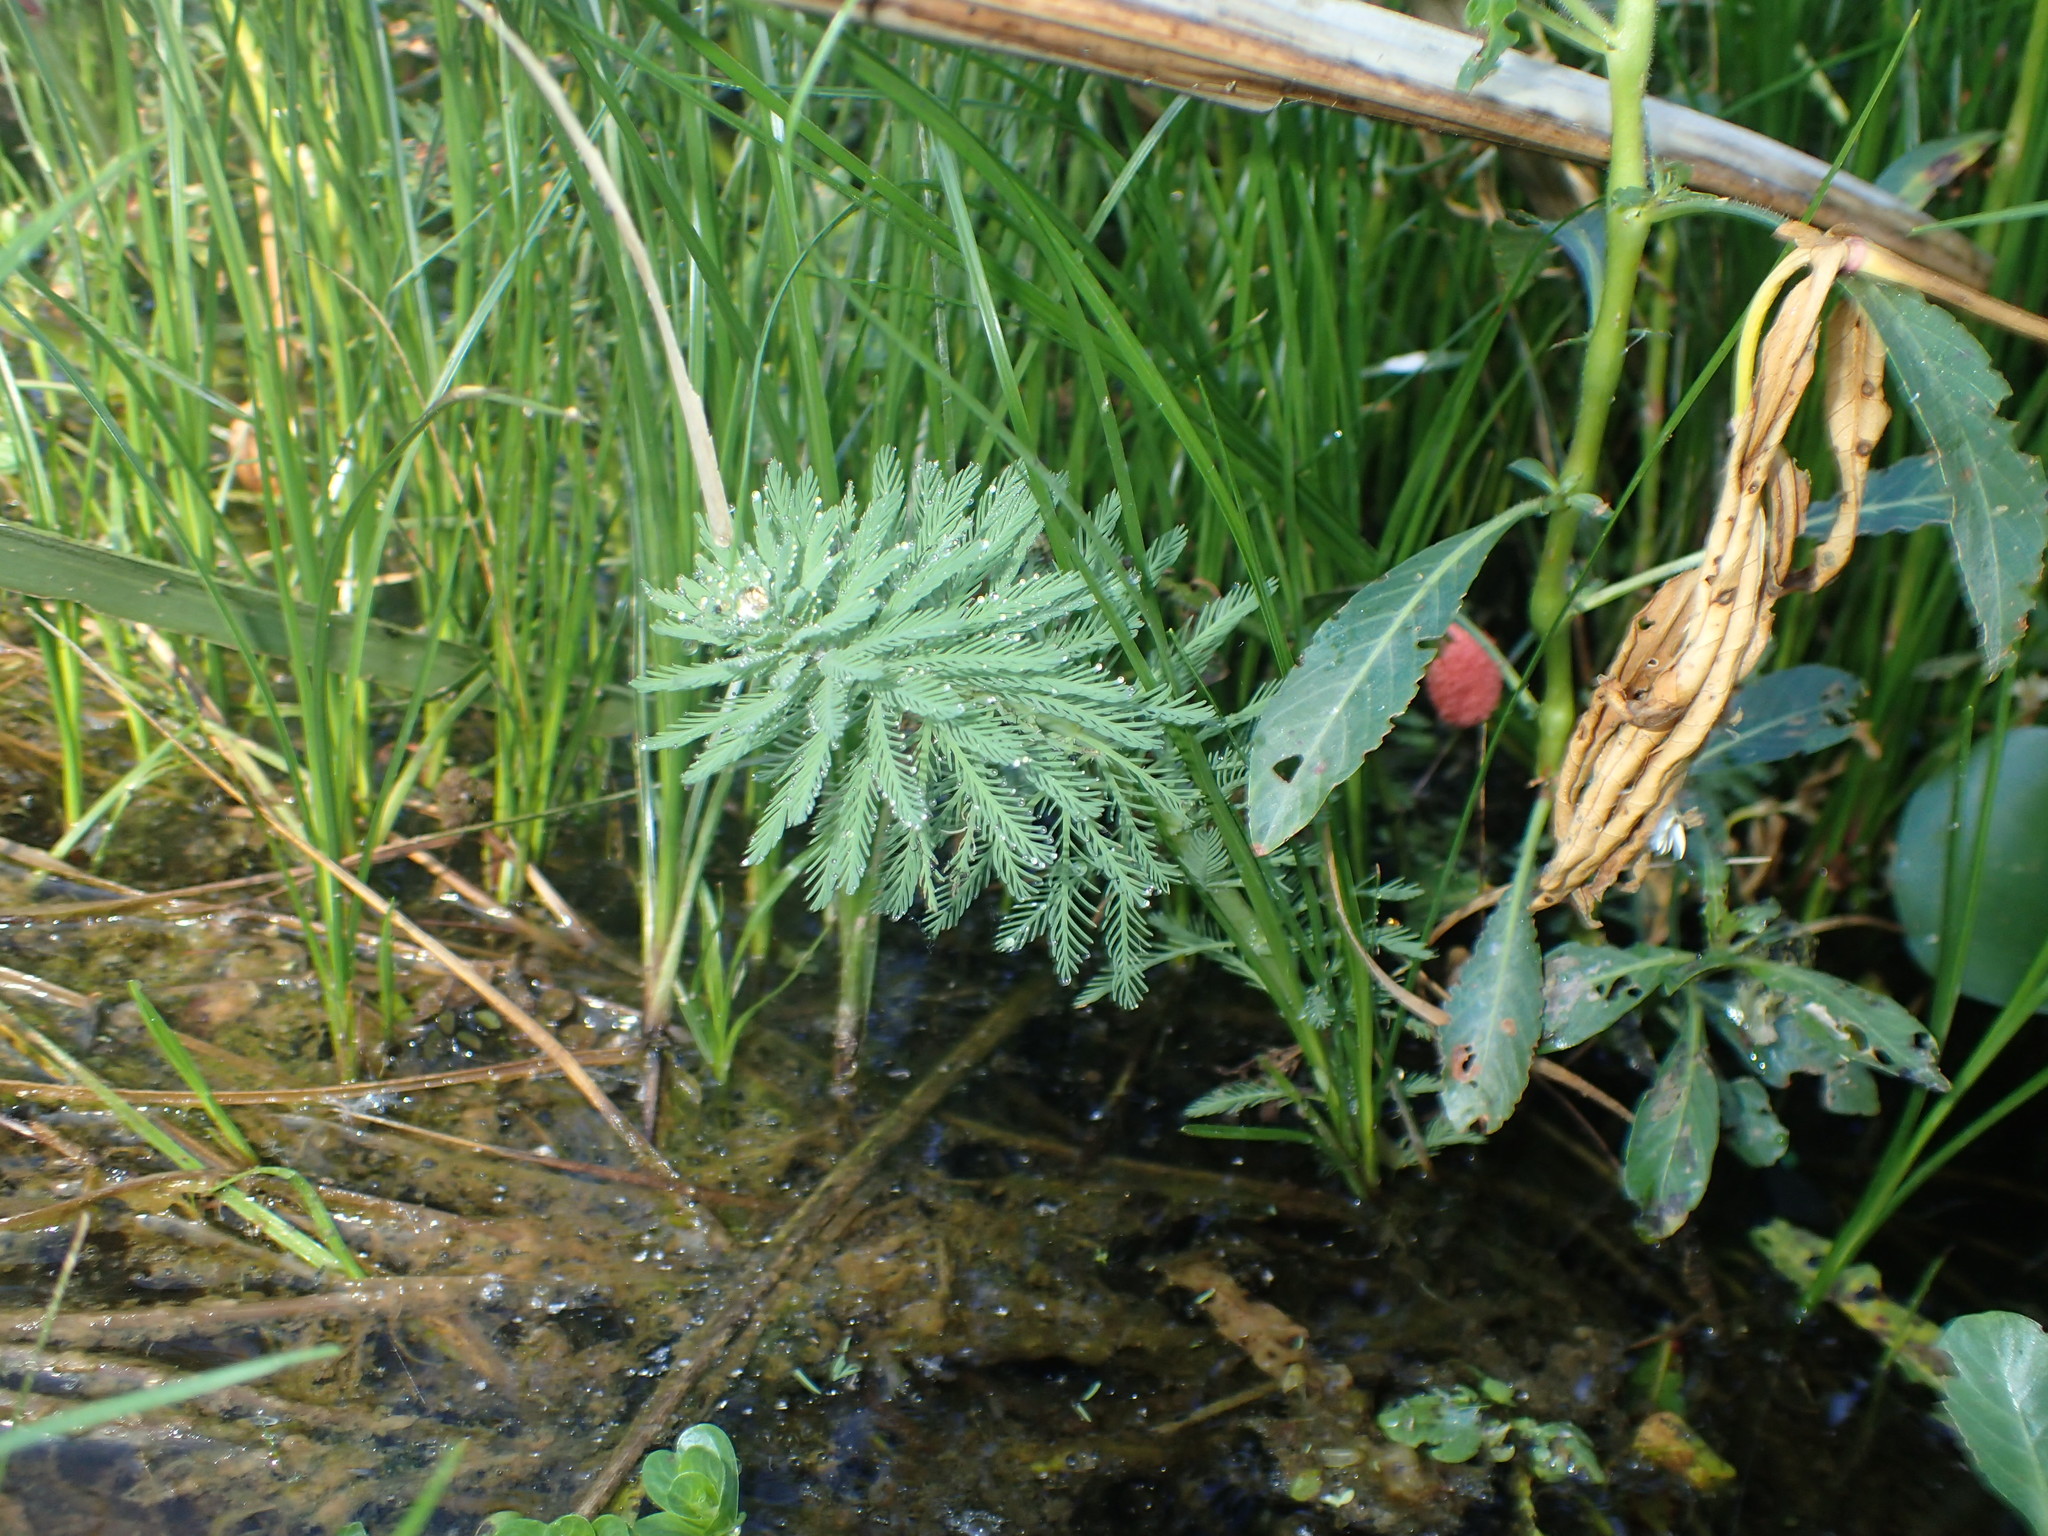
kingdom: Plantae
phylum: Tracheophyta
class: Magnoliopsida
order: Saxifragales
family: Haloragaceae
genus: Myriophyllum
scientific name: Myriophyllum aquaticum
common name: Parrot's feather
